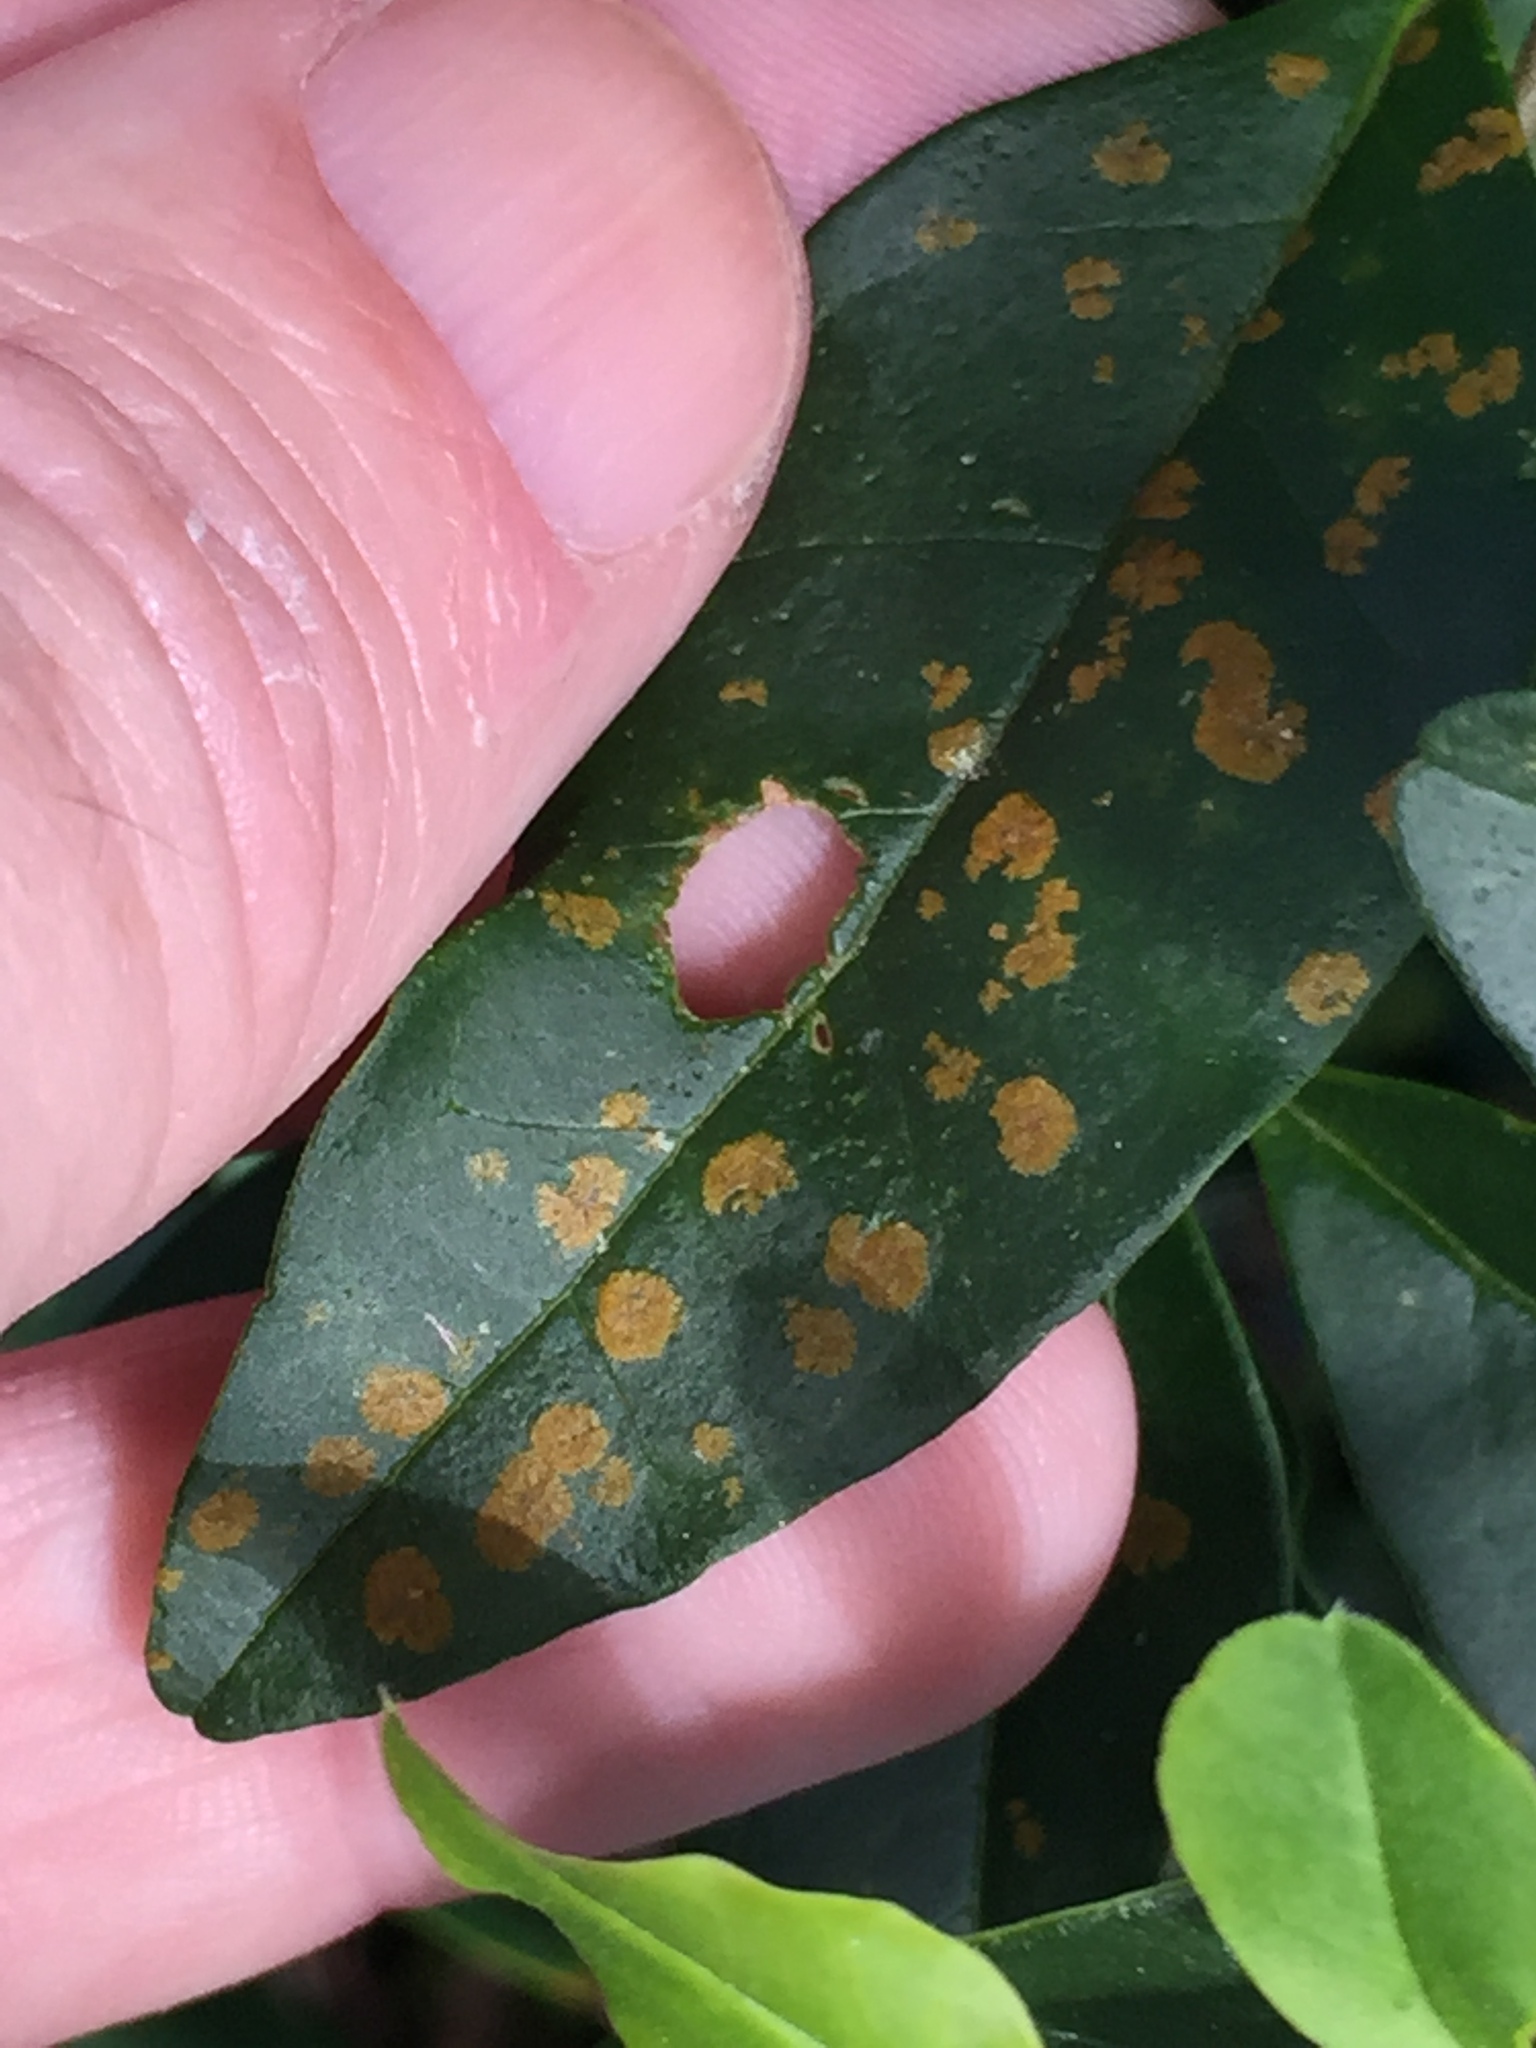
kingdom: Plantae
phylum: Chlorophyta
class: Ulvophyceae
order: Trentepohliales
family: Trentepohliaceae
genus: Cephaleuros
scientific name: Cephaleuros virescens
